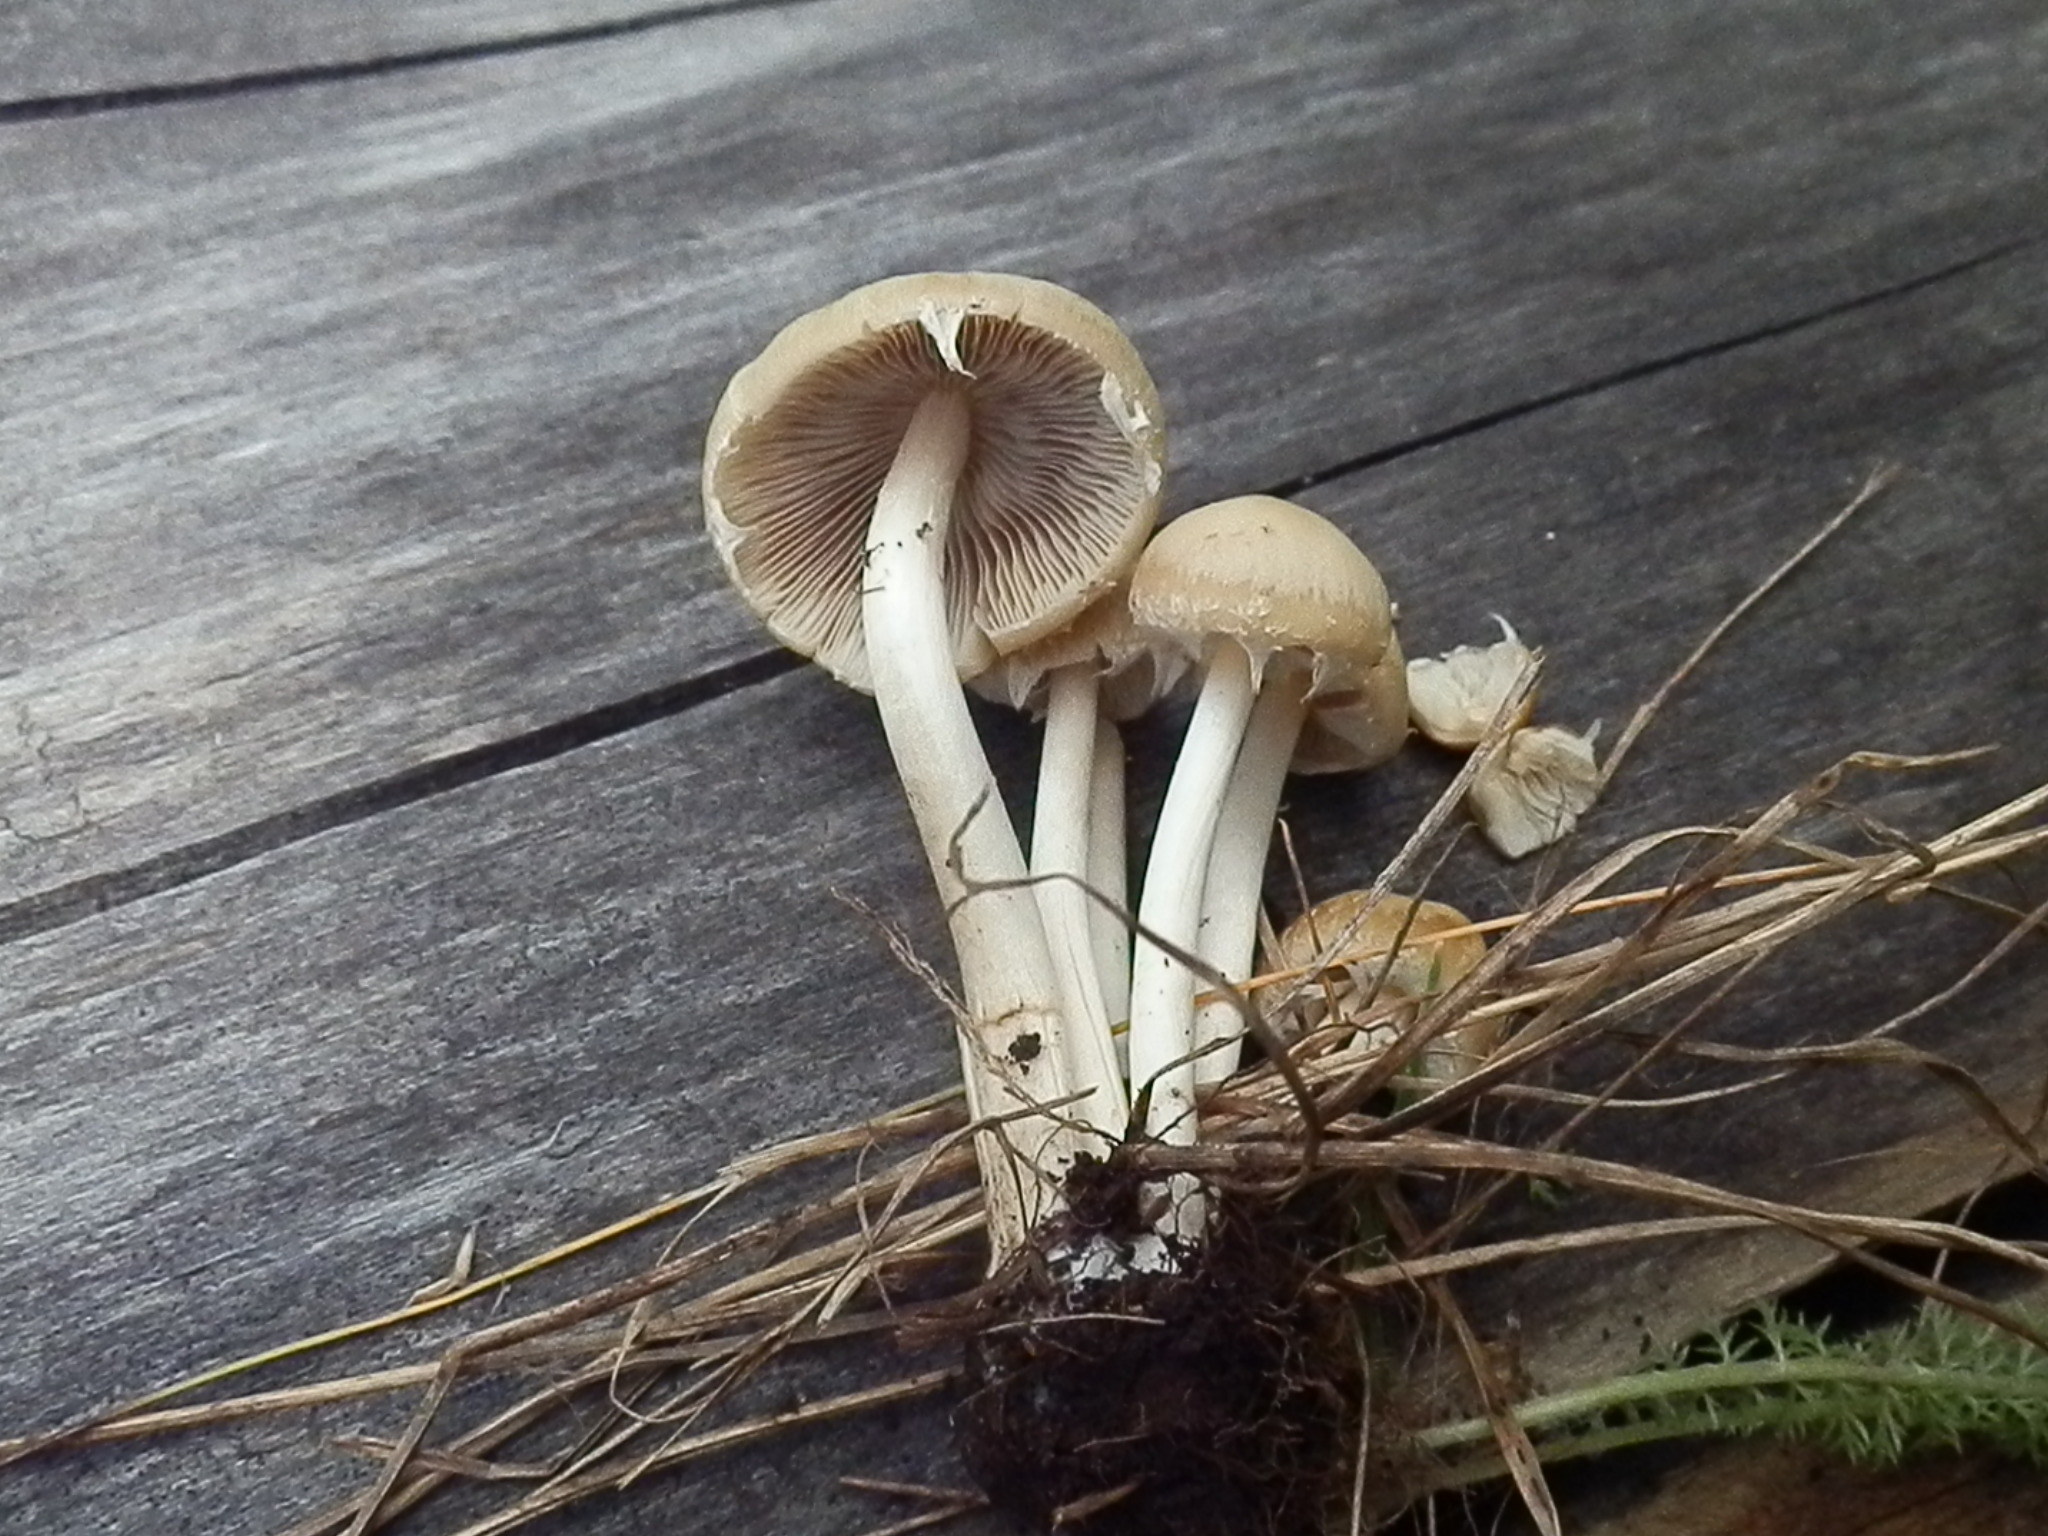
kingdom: Fungi
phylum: Basidiomycota
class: Agaricomycetes
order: Agaricales
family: Psathyrellaceae
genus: Candolleomyces
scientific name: Candolleomyces candolleanus
